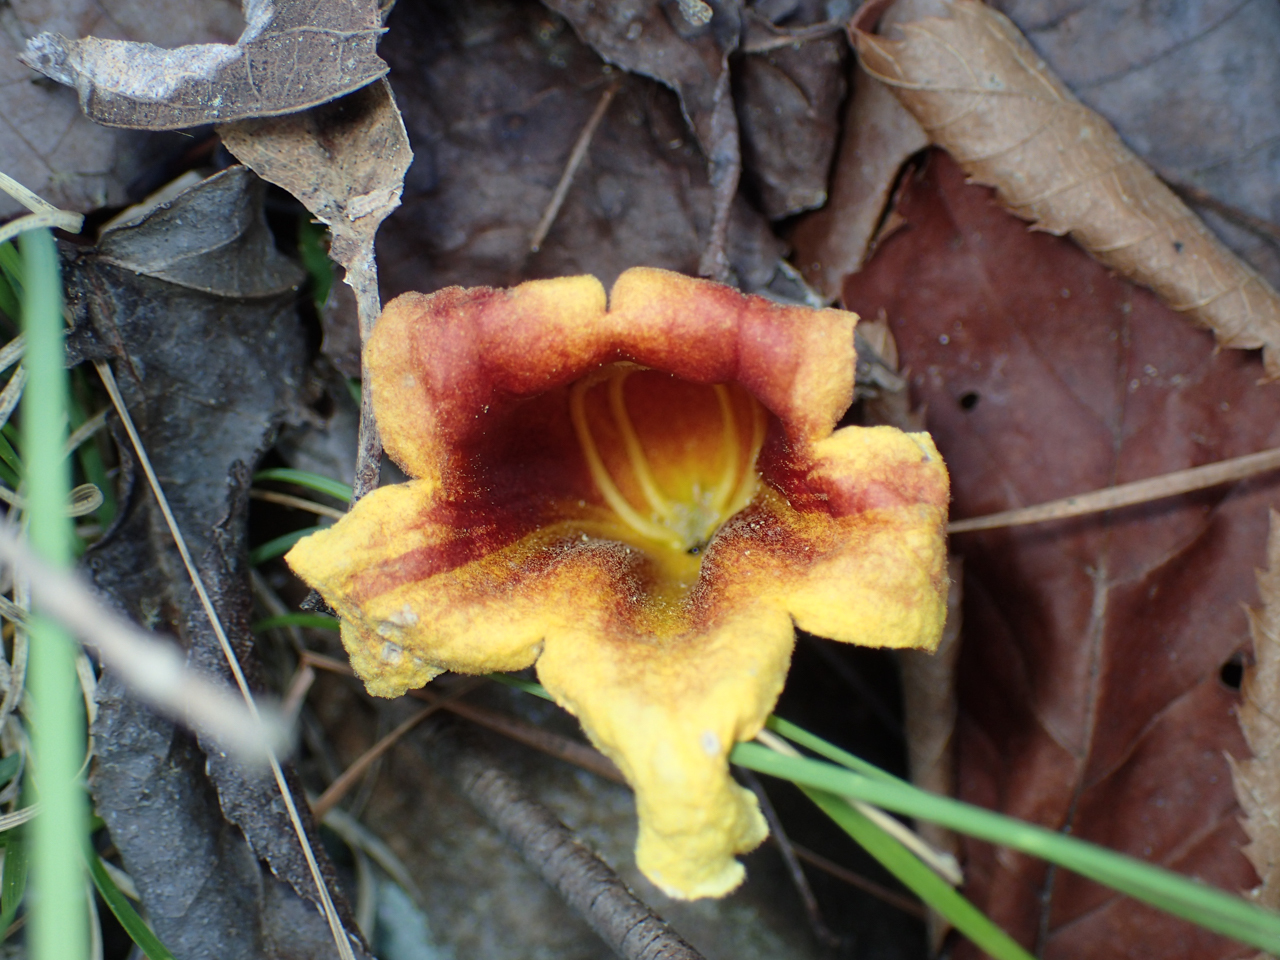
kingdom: Plantae
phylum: Tracheophyta
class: Magnoliopsida
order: Lamiales
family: Bignoniaceae
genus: Bignonia
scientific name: Bignonia capreolata
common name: Crossvine
